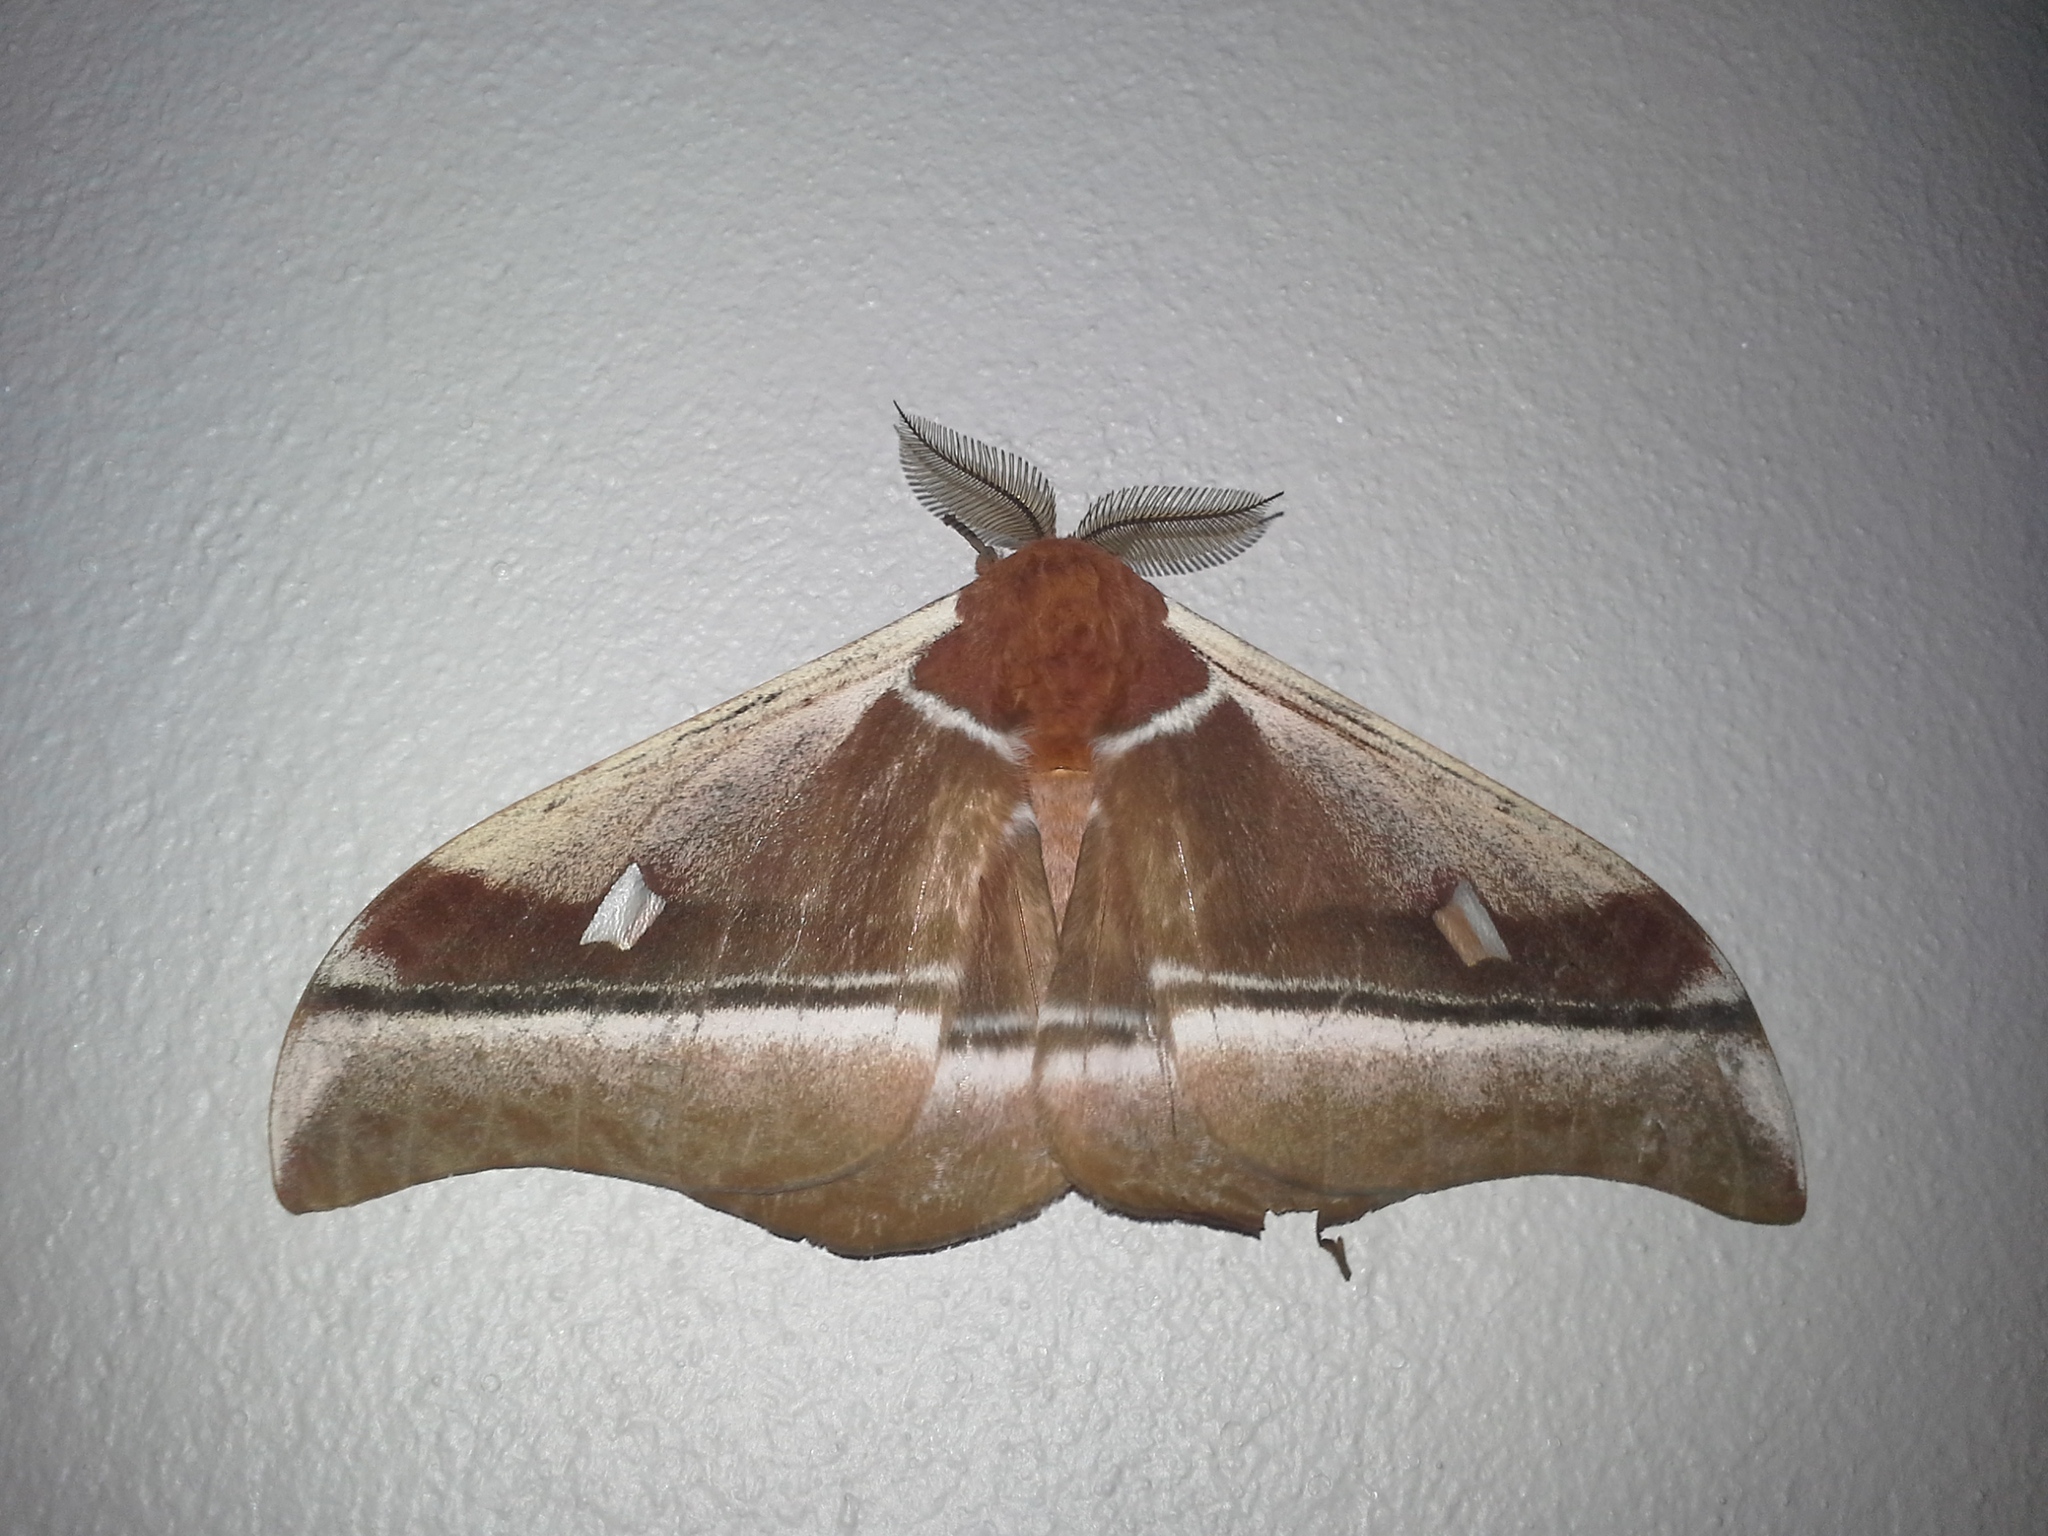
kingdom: Animalia
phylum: Arthropoda
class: Insecta
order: Lepidoptera
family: Saturniidae
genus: Bunaea
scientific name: Bunaea alcinoe
